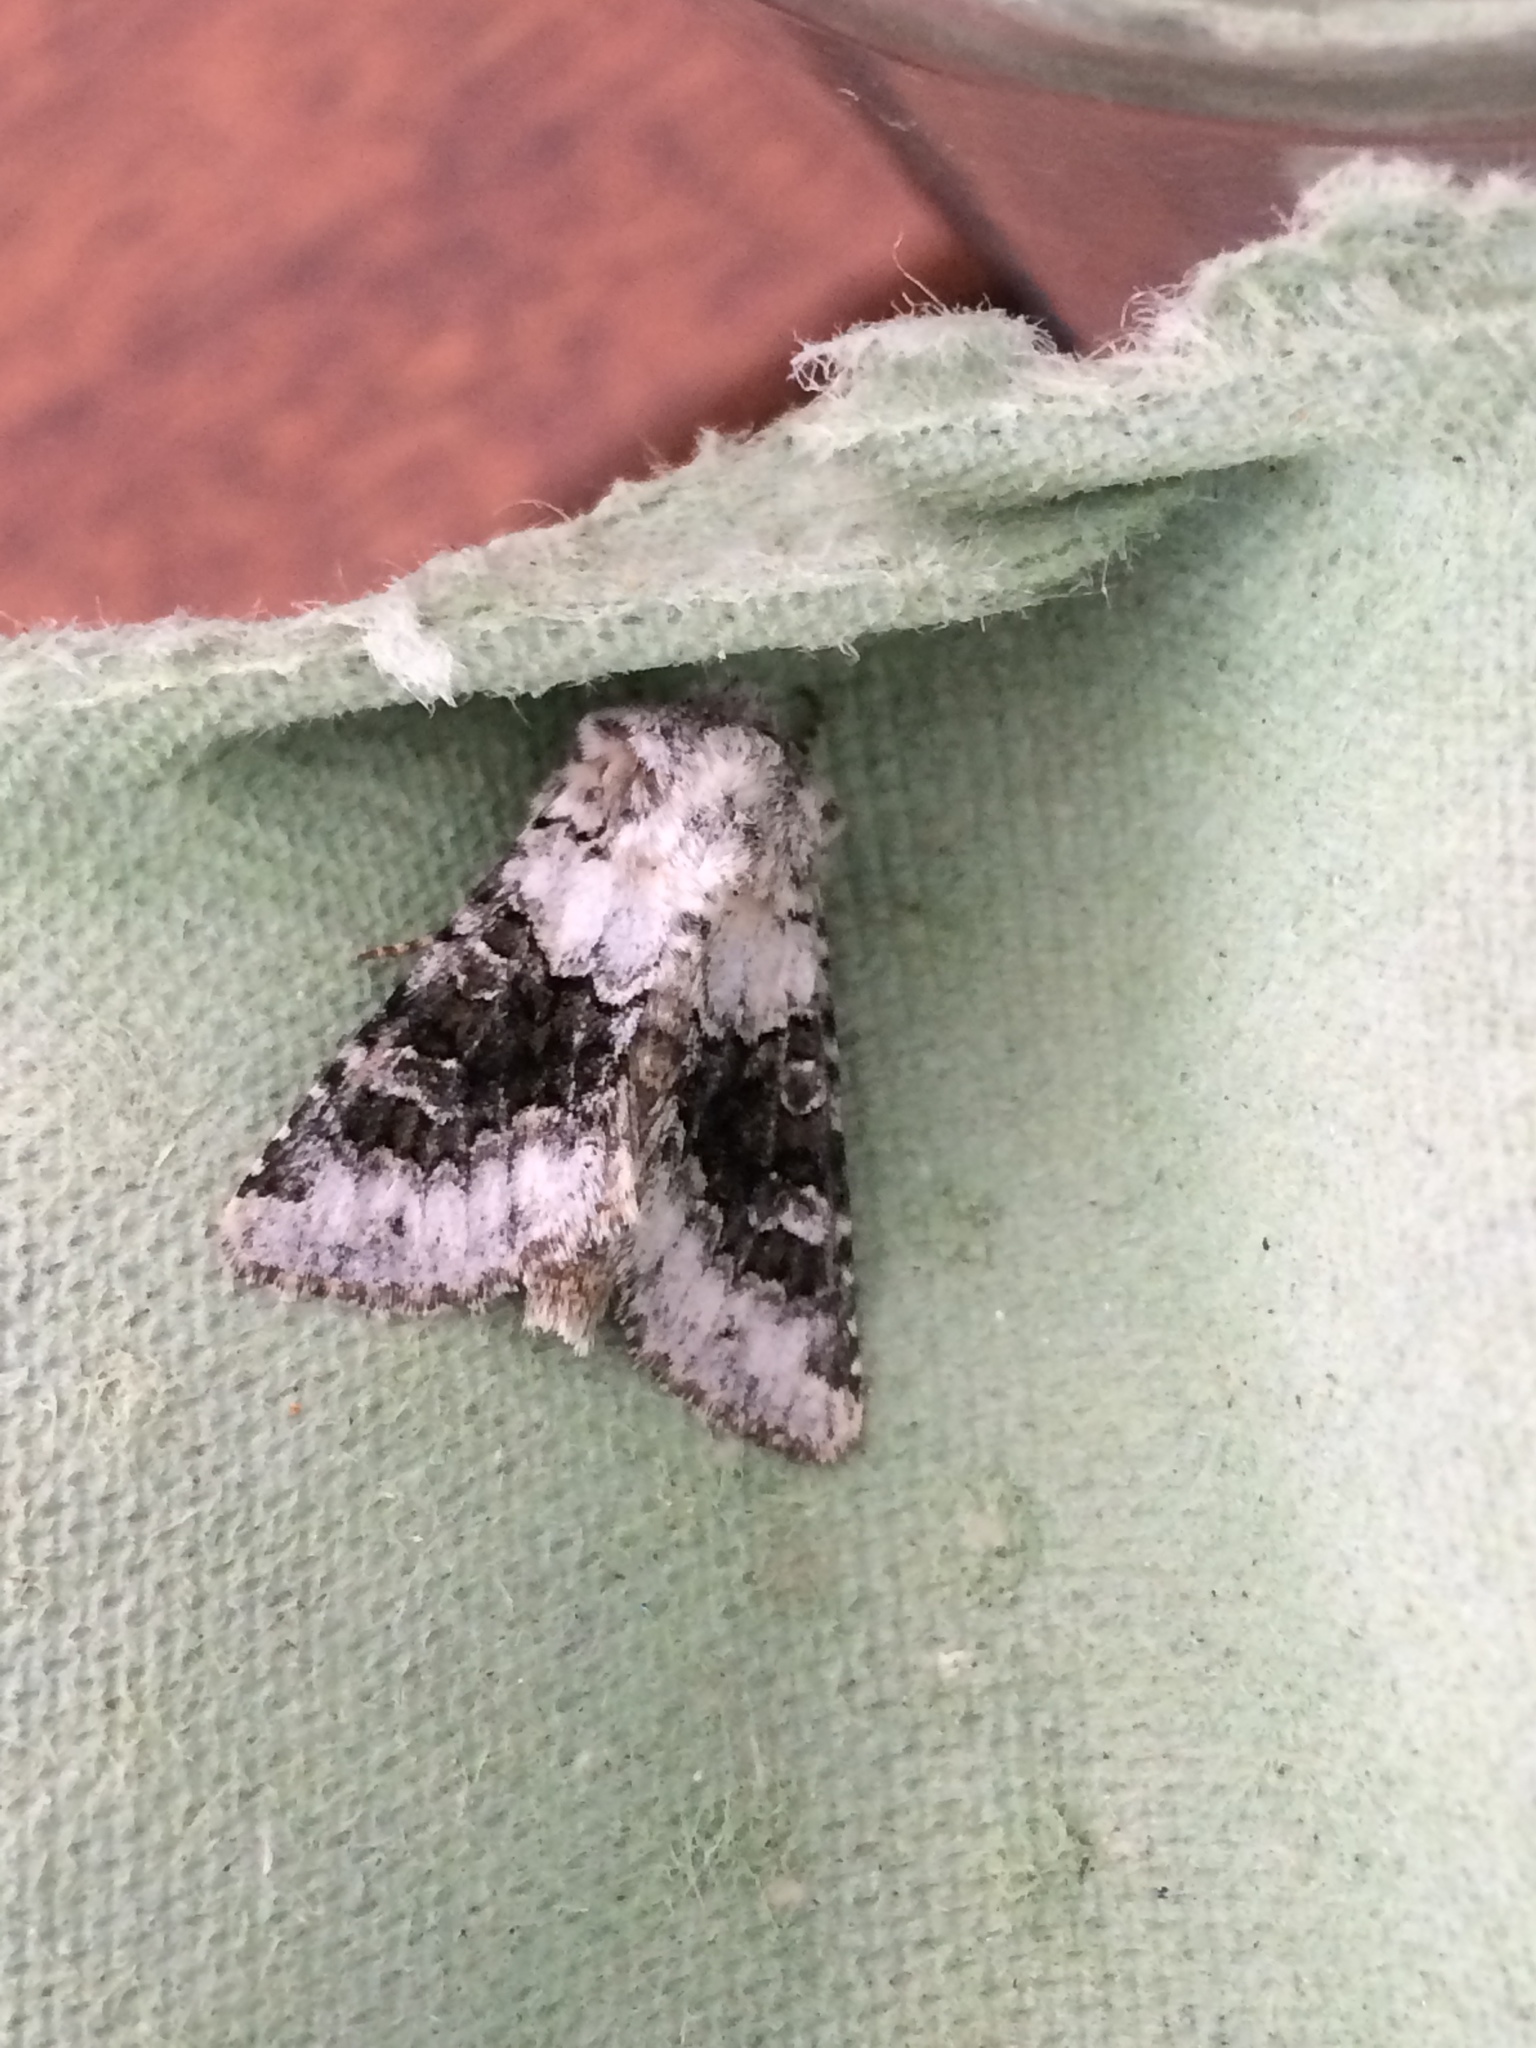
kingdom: Animalia
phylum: Arthropoda
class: Insecta
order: Lepidoptera
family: Noctuidae
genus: Hecatera
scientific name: Hecatera bicolorata
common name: Broad-barred white
